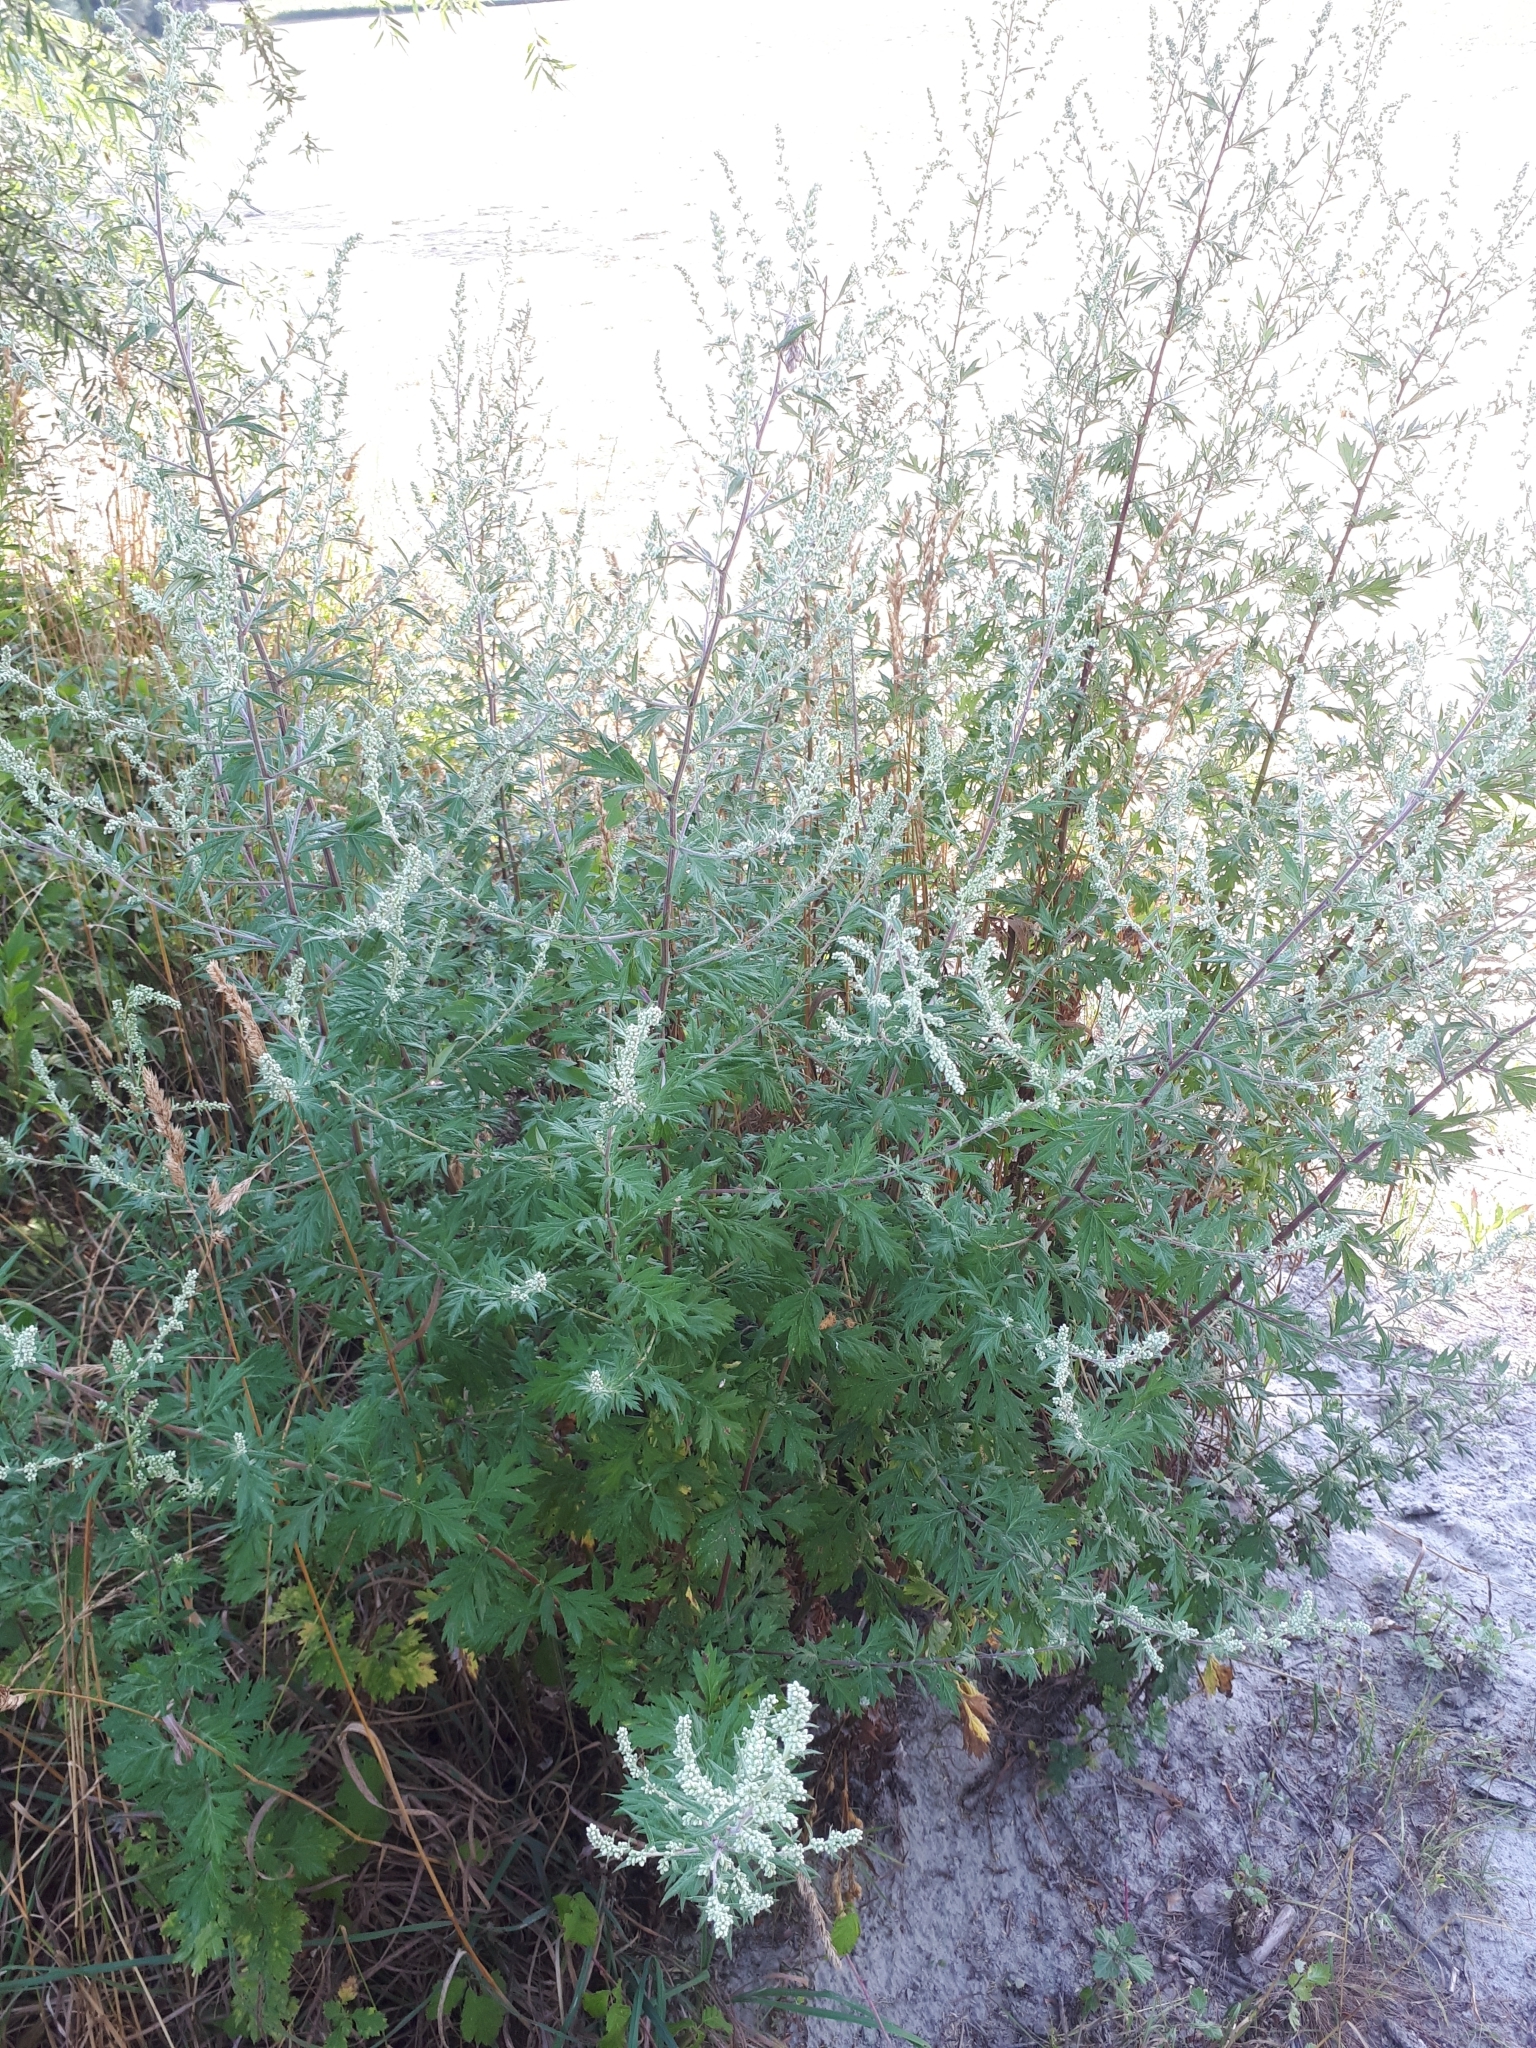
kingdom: Plantae
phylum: Tracheophyta
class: Magnoliopsida
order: Asterales
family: Asteraceae
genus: Artemisia
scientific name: Artemisia vulgaris
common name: Mugwort
